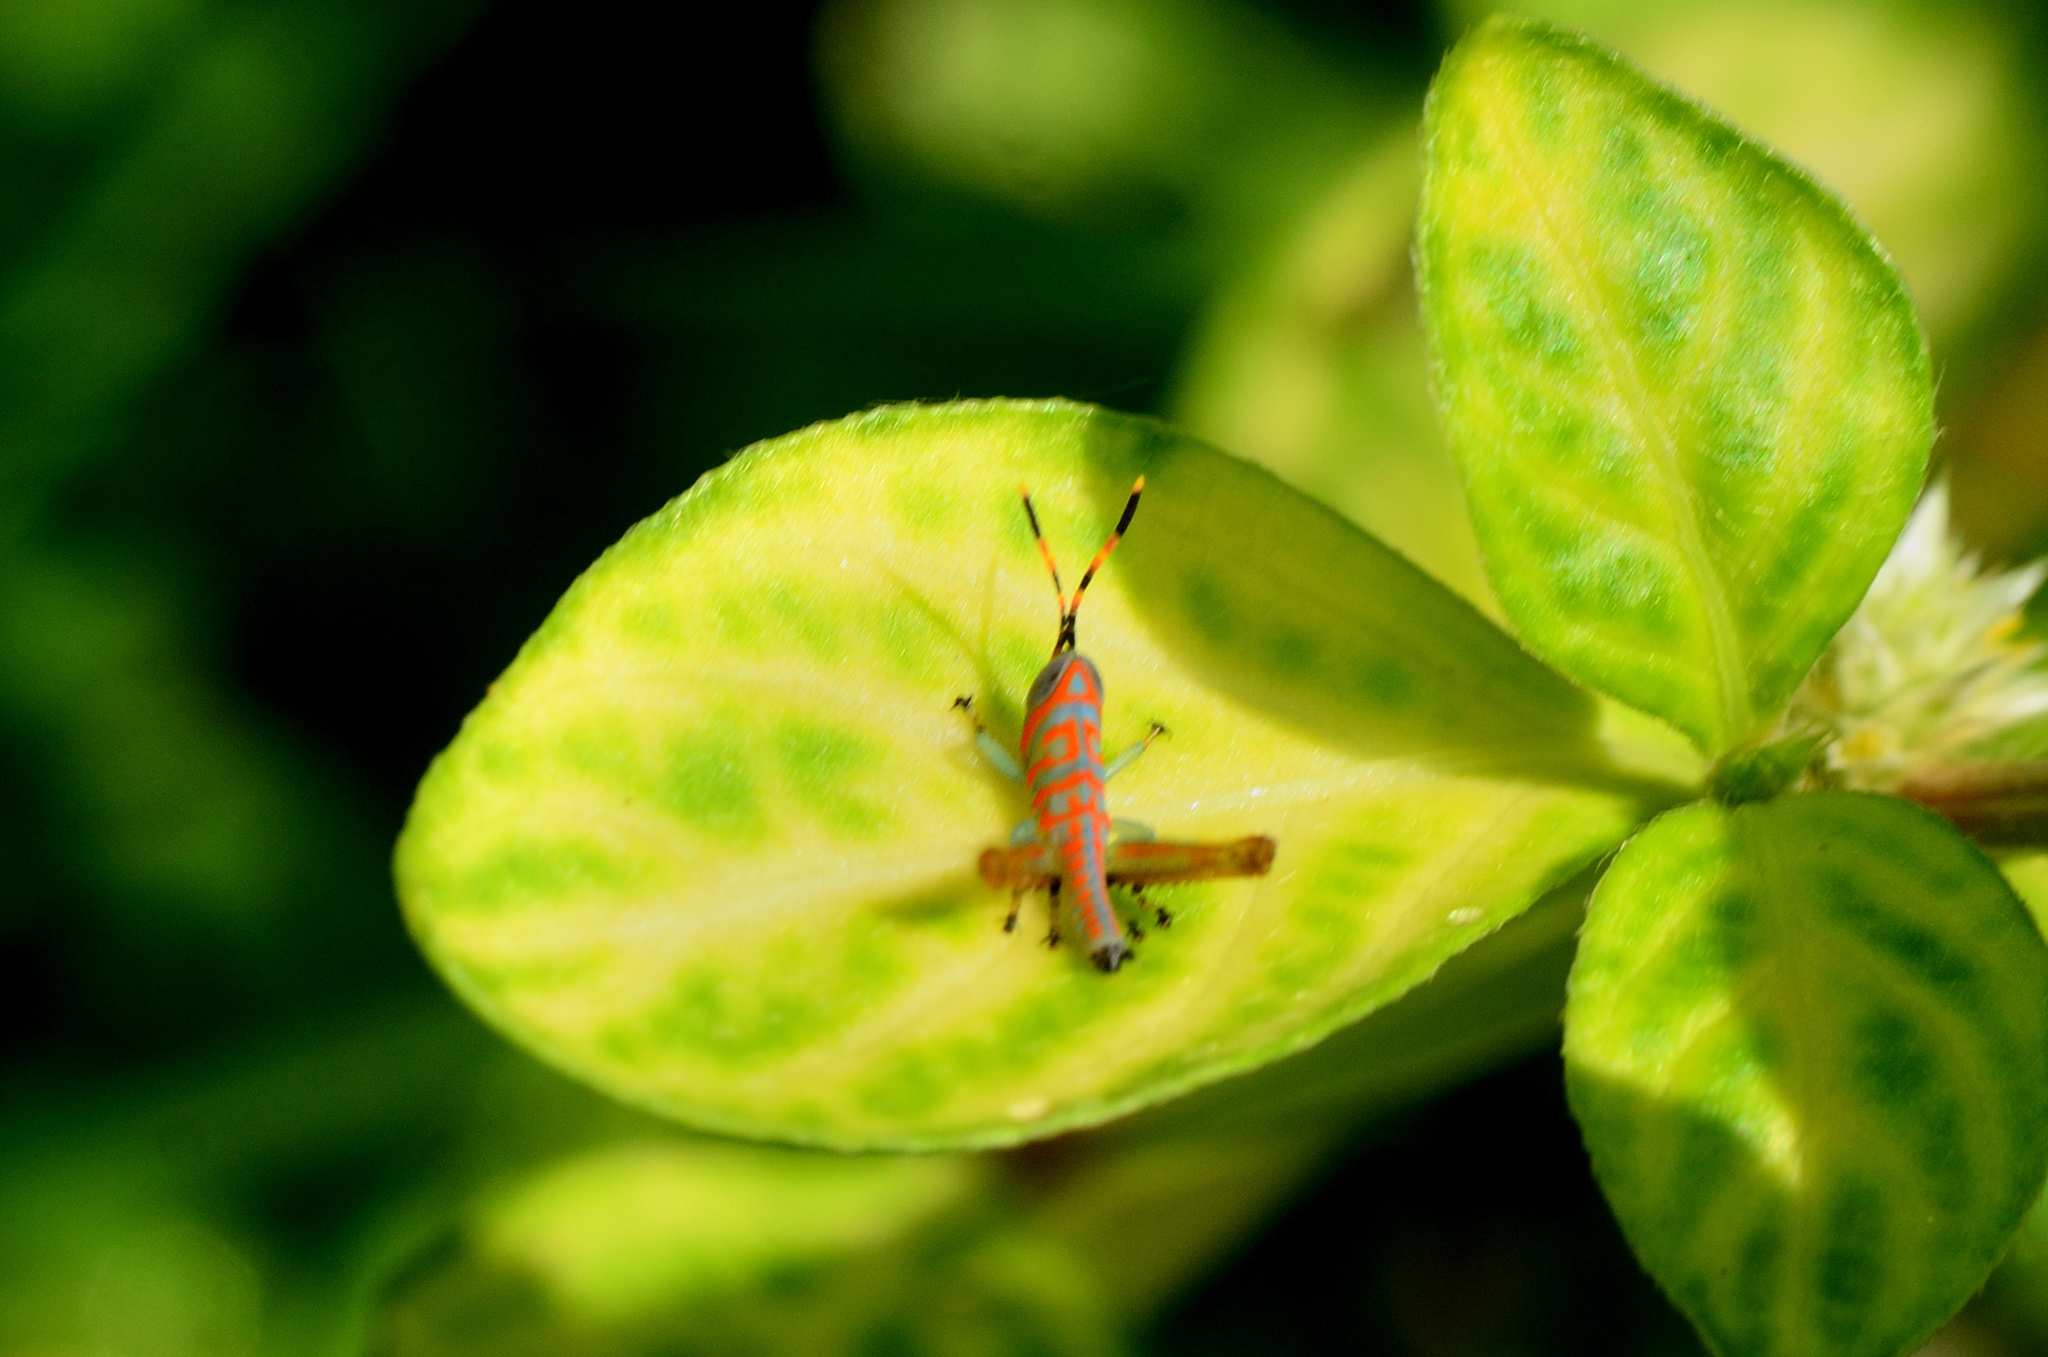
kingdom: Animalia
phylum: Arthropoda
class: Insecta
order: Orthoptera
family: Acrididae
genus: Pirithoicus
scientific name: Pirithoicus ophthalmicus
